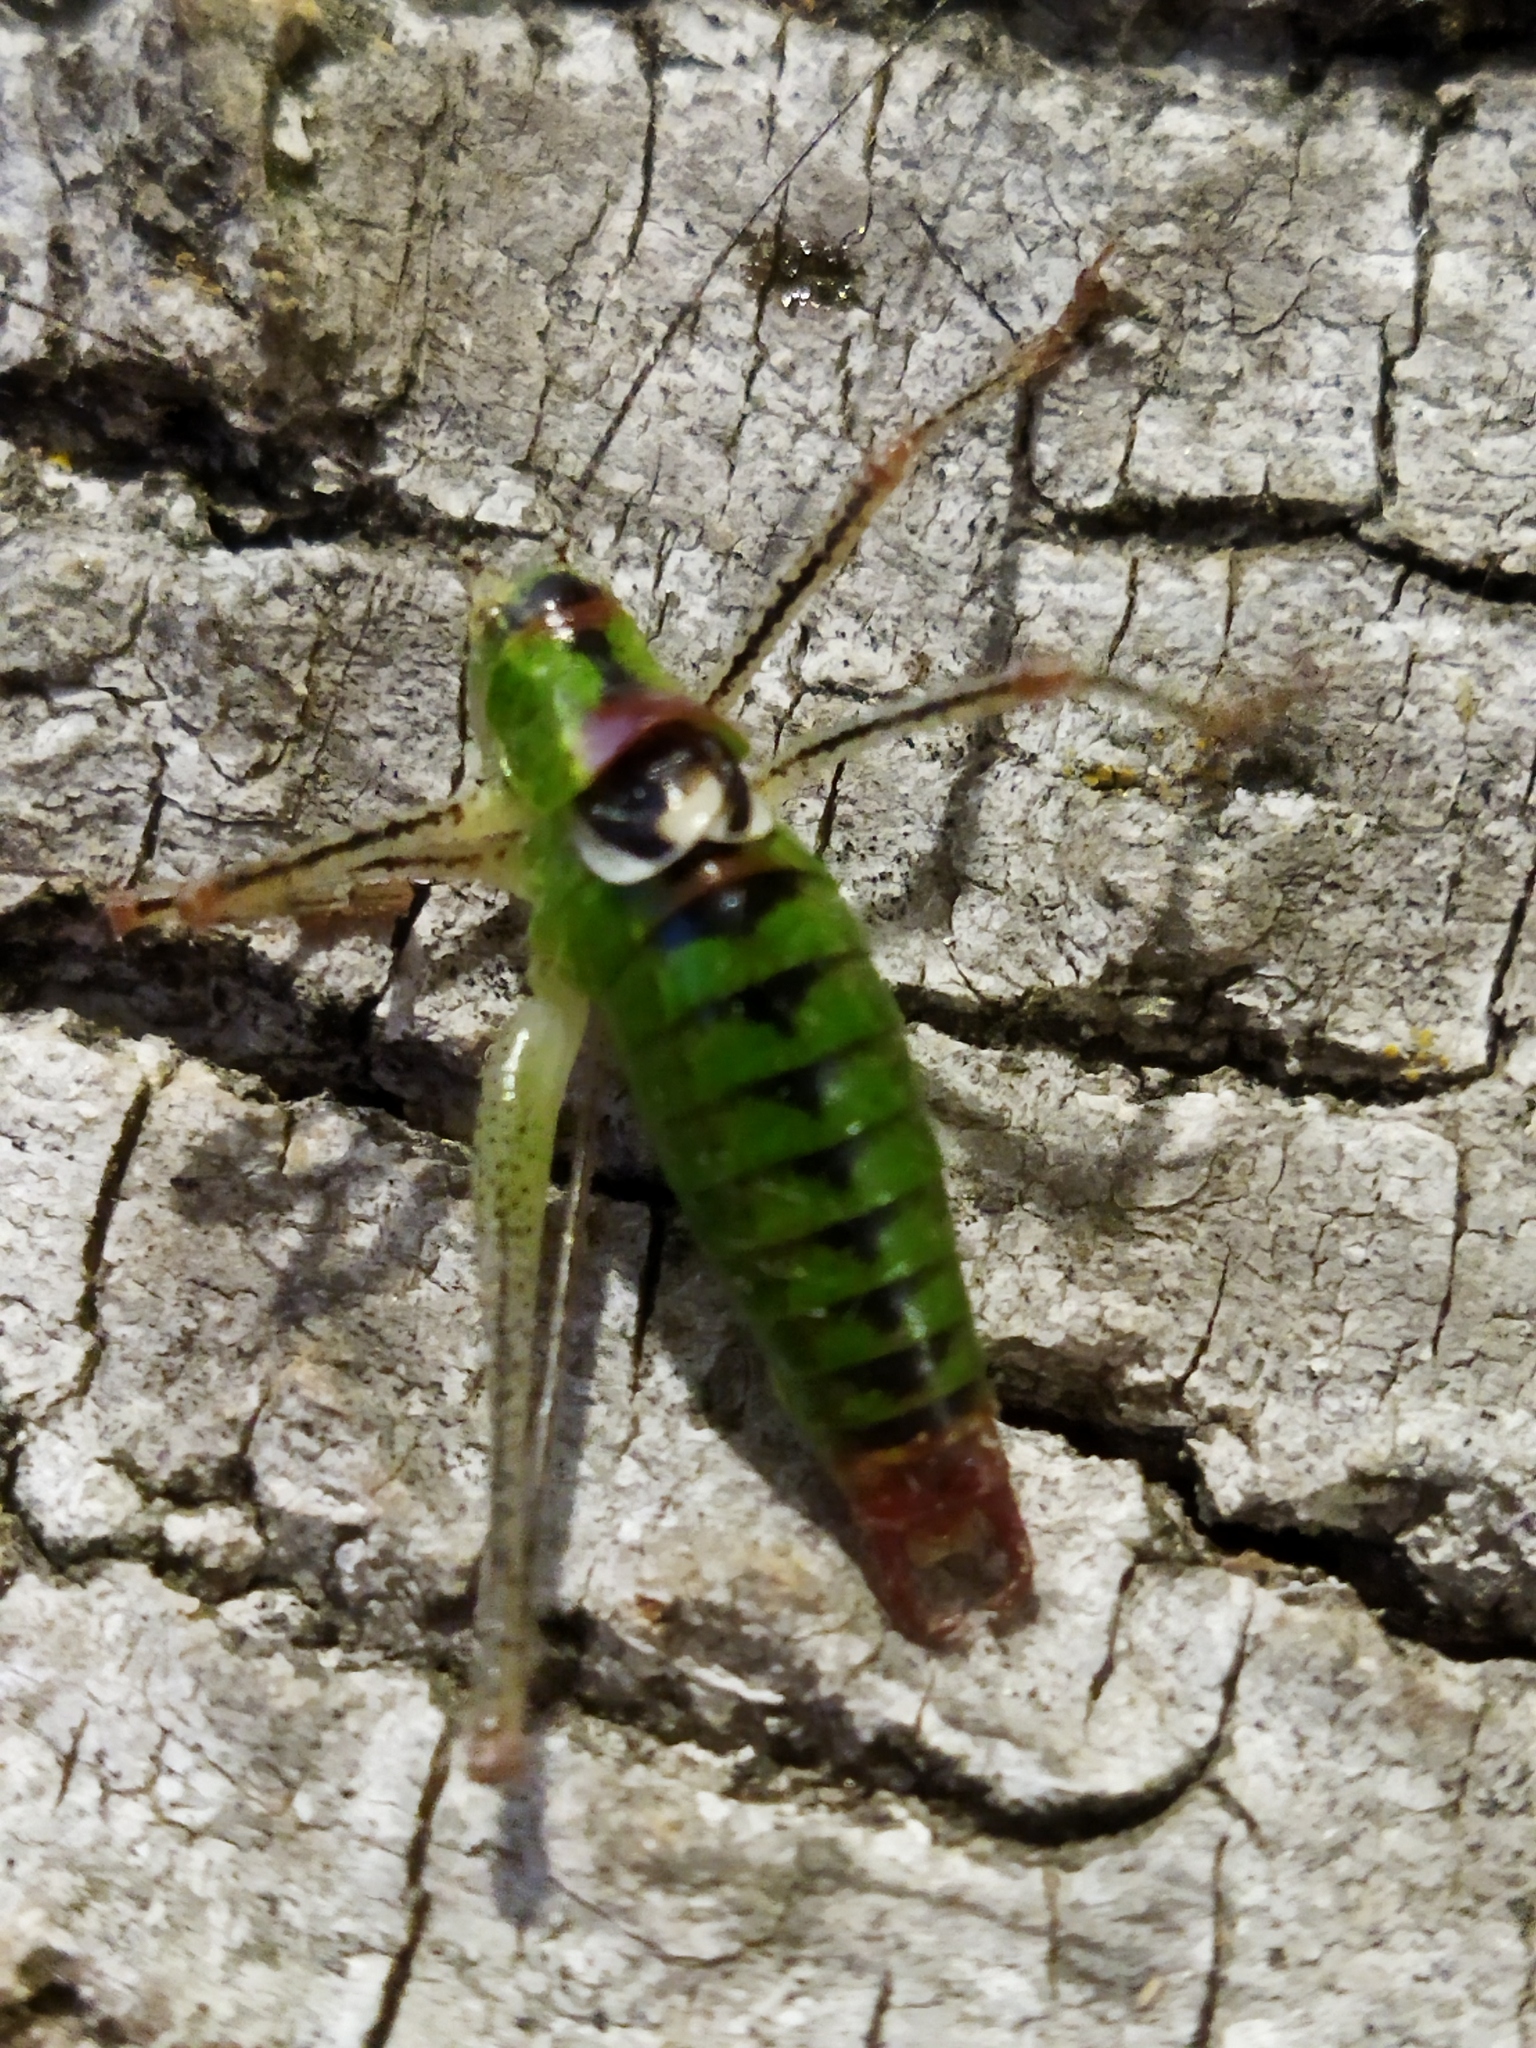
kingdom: Animalia
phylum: Arthropoda
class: Insecta
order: Orthoptera
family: Tettigoniidae
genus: Poecilimon
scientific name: Poecilimon thoracicus
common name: Bellied bright bush-cricket
